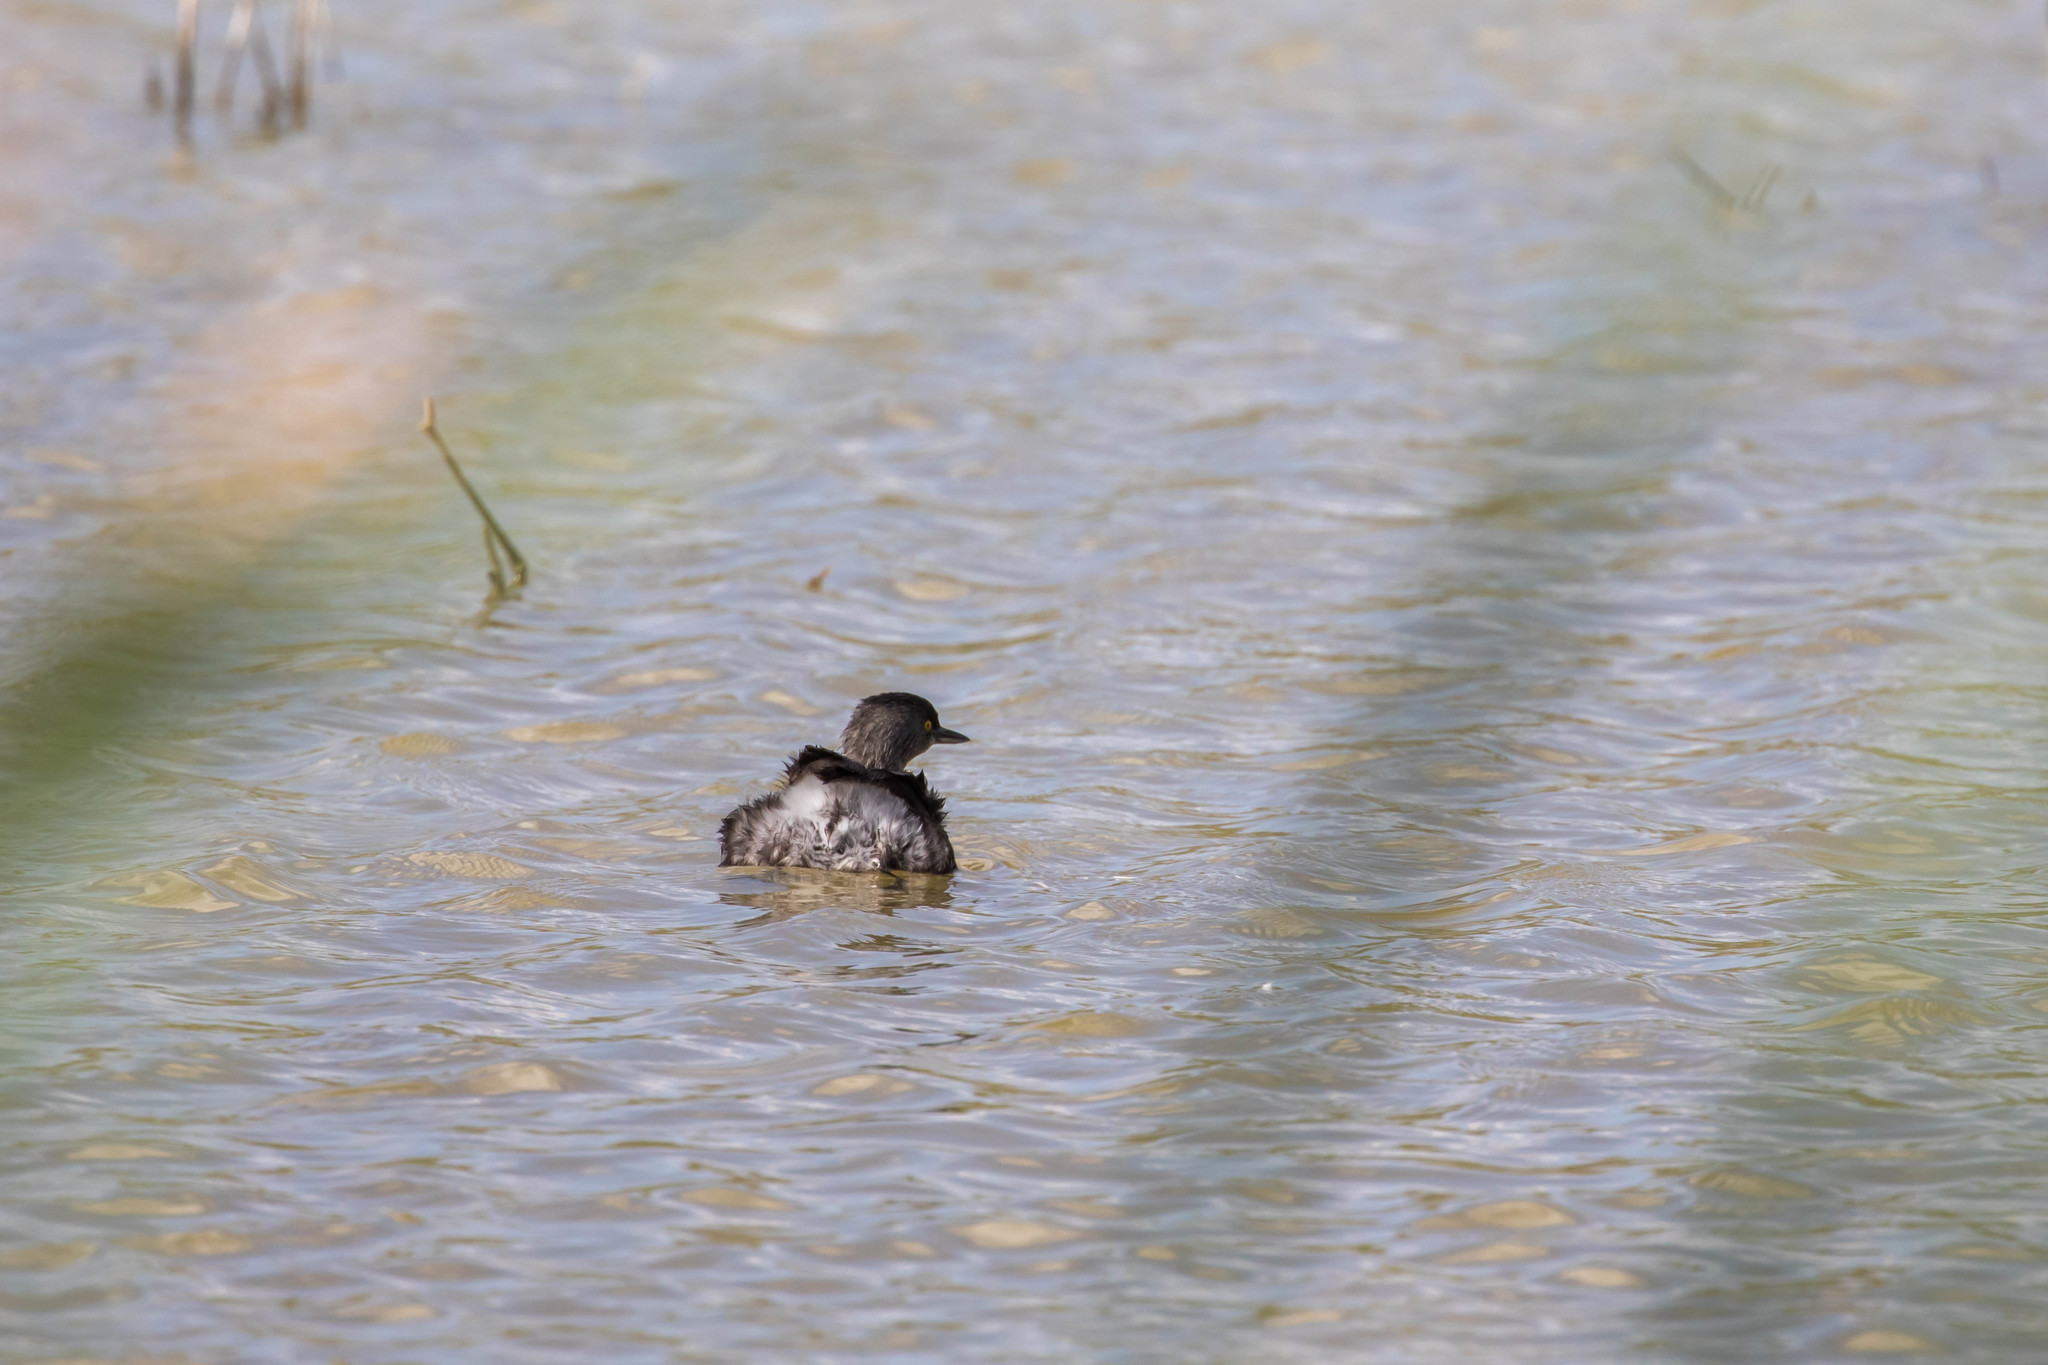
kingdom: Animalia
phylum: Chordata
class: Aves
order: Podicipediformes
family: Podicipedidae
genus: Tachybaptus
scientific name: Tachybaptus dominicus
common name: Least grebe
